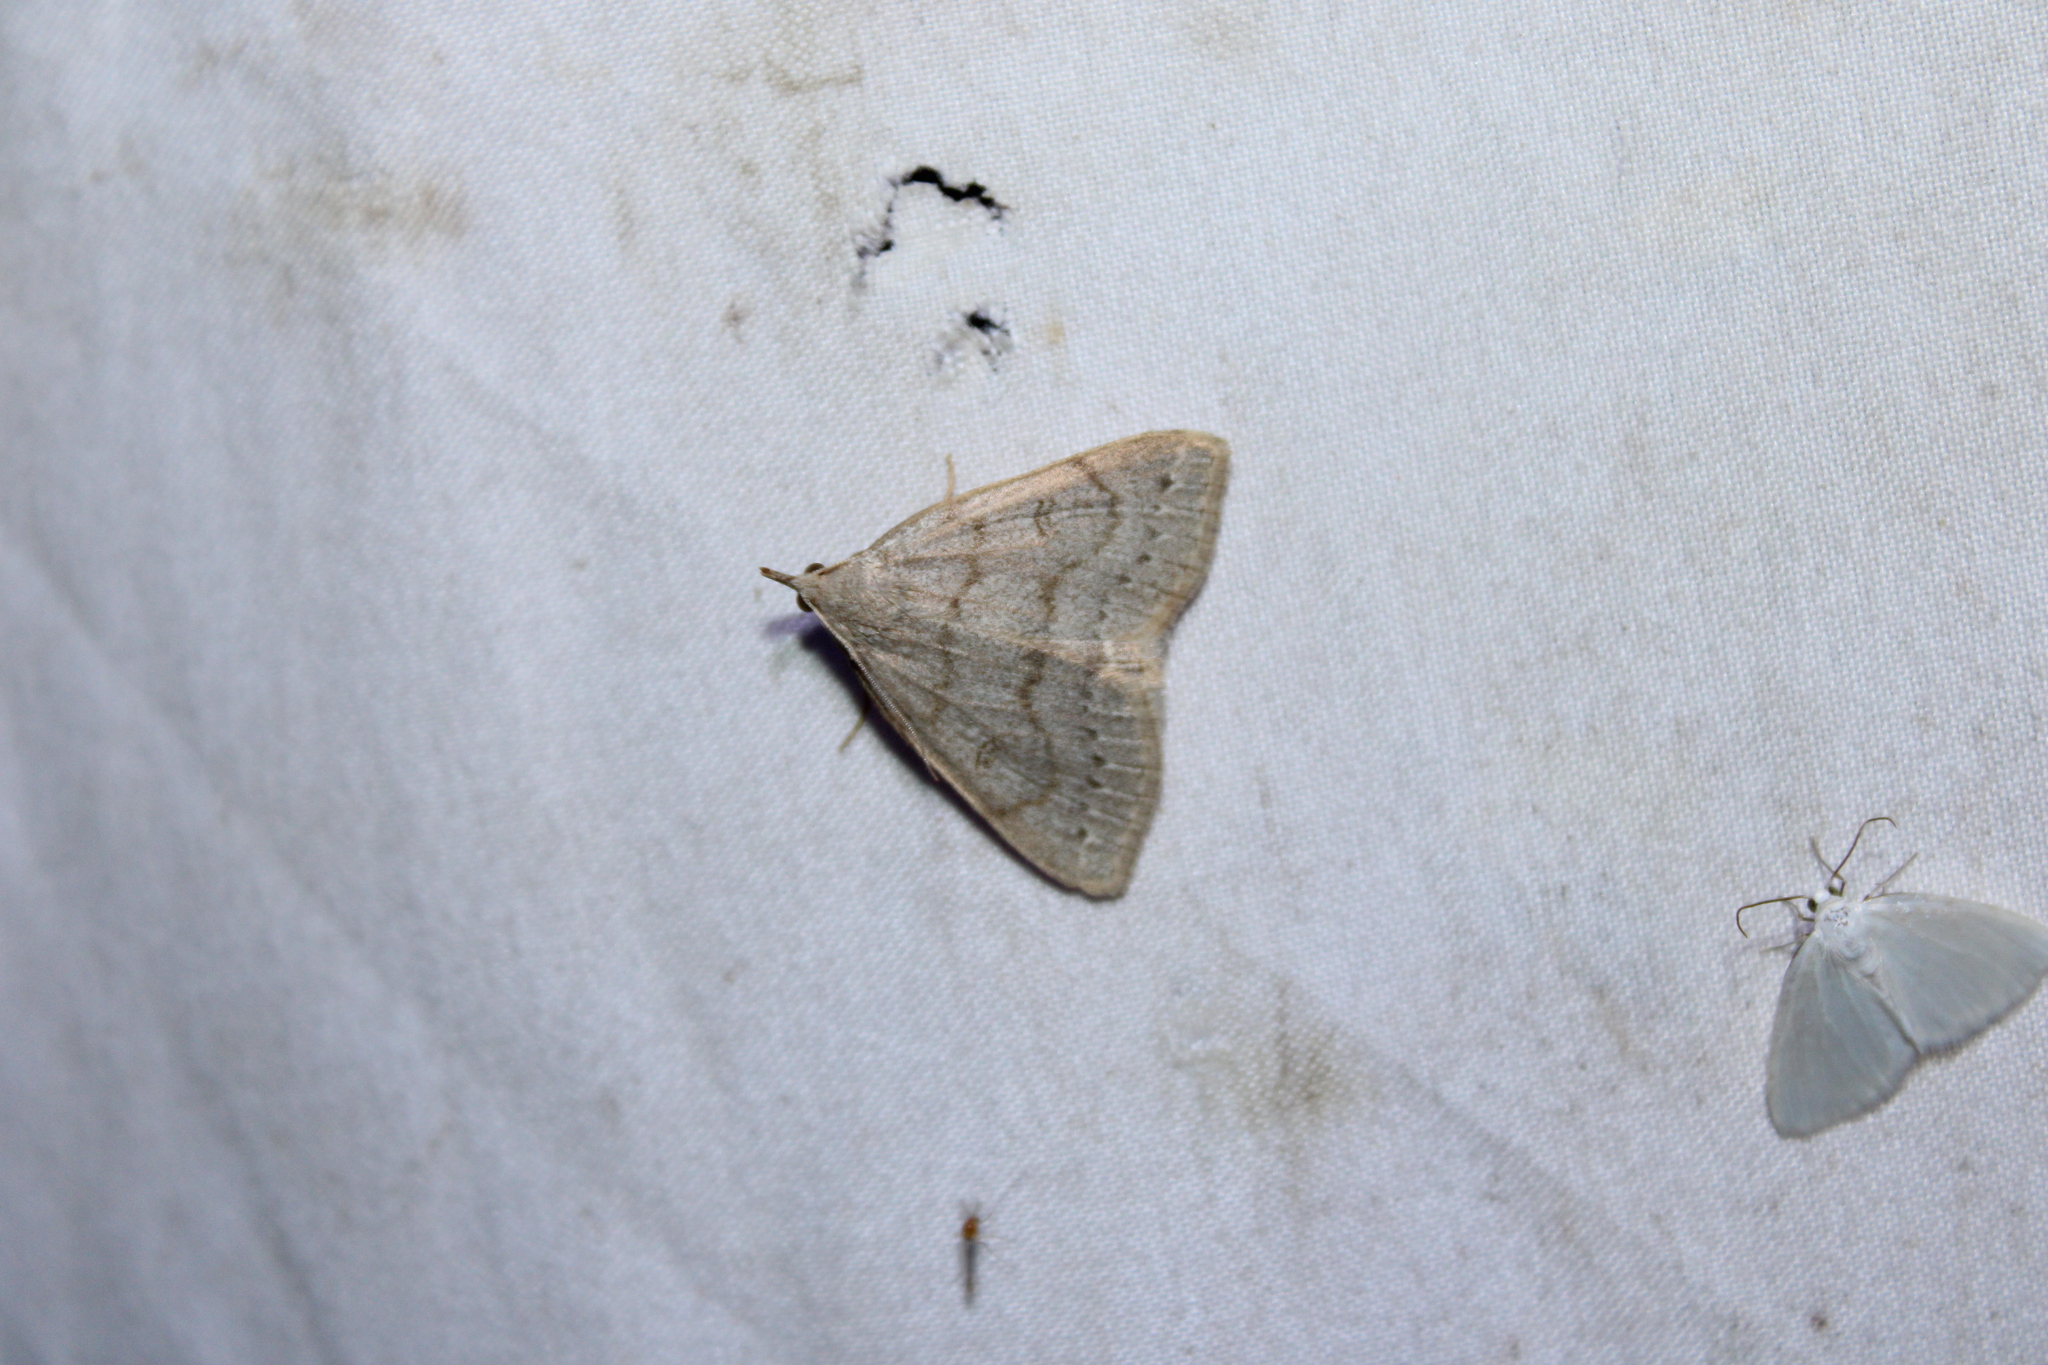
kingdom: Animalia
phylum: Arthropoda
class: Insecta
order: Lepidoptera
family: Erebidae
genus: Macrochilo
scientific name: Macrochilo morbidalis
